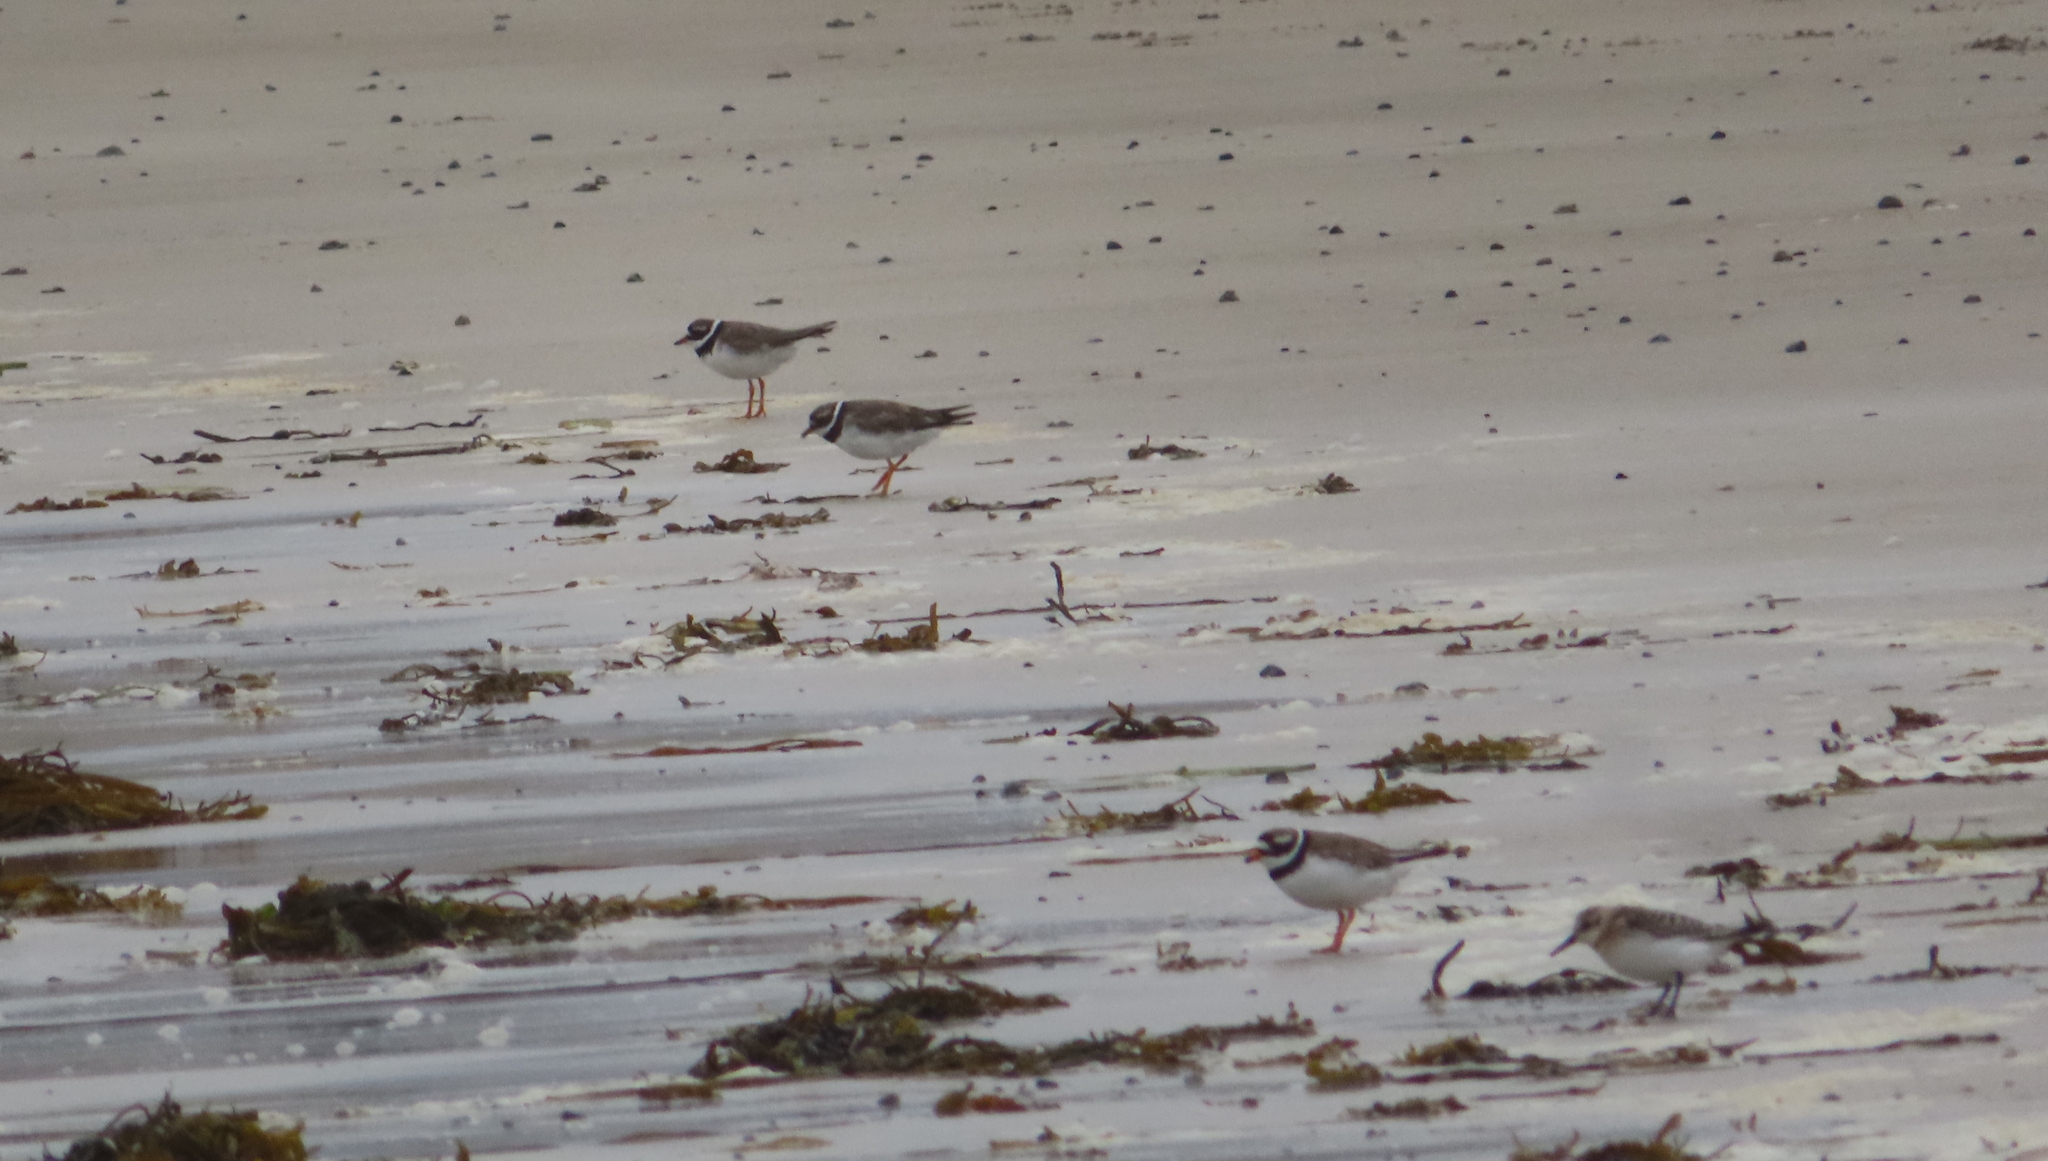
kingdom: Animalia
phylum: Chordata
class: Aves
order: Charadriiformes
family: Scolopacidae
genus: Calidris
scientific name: Calidris alba
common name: Sanderling
